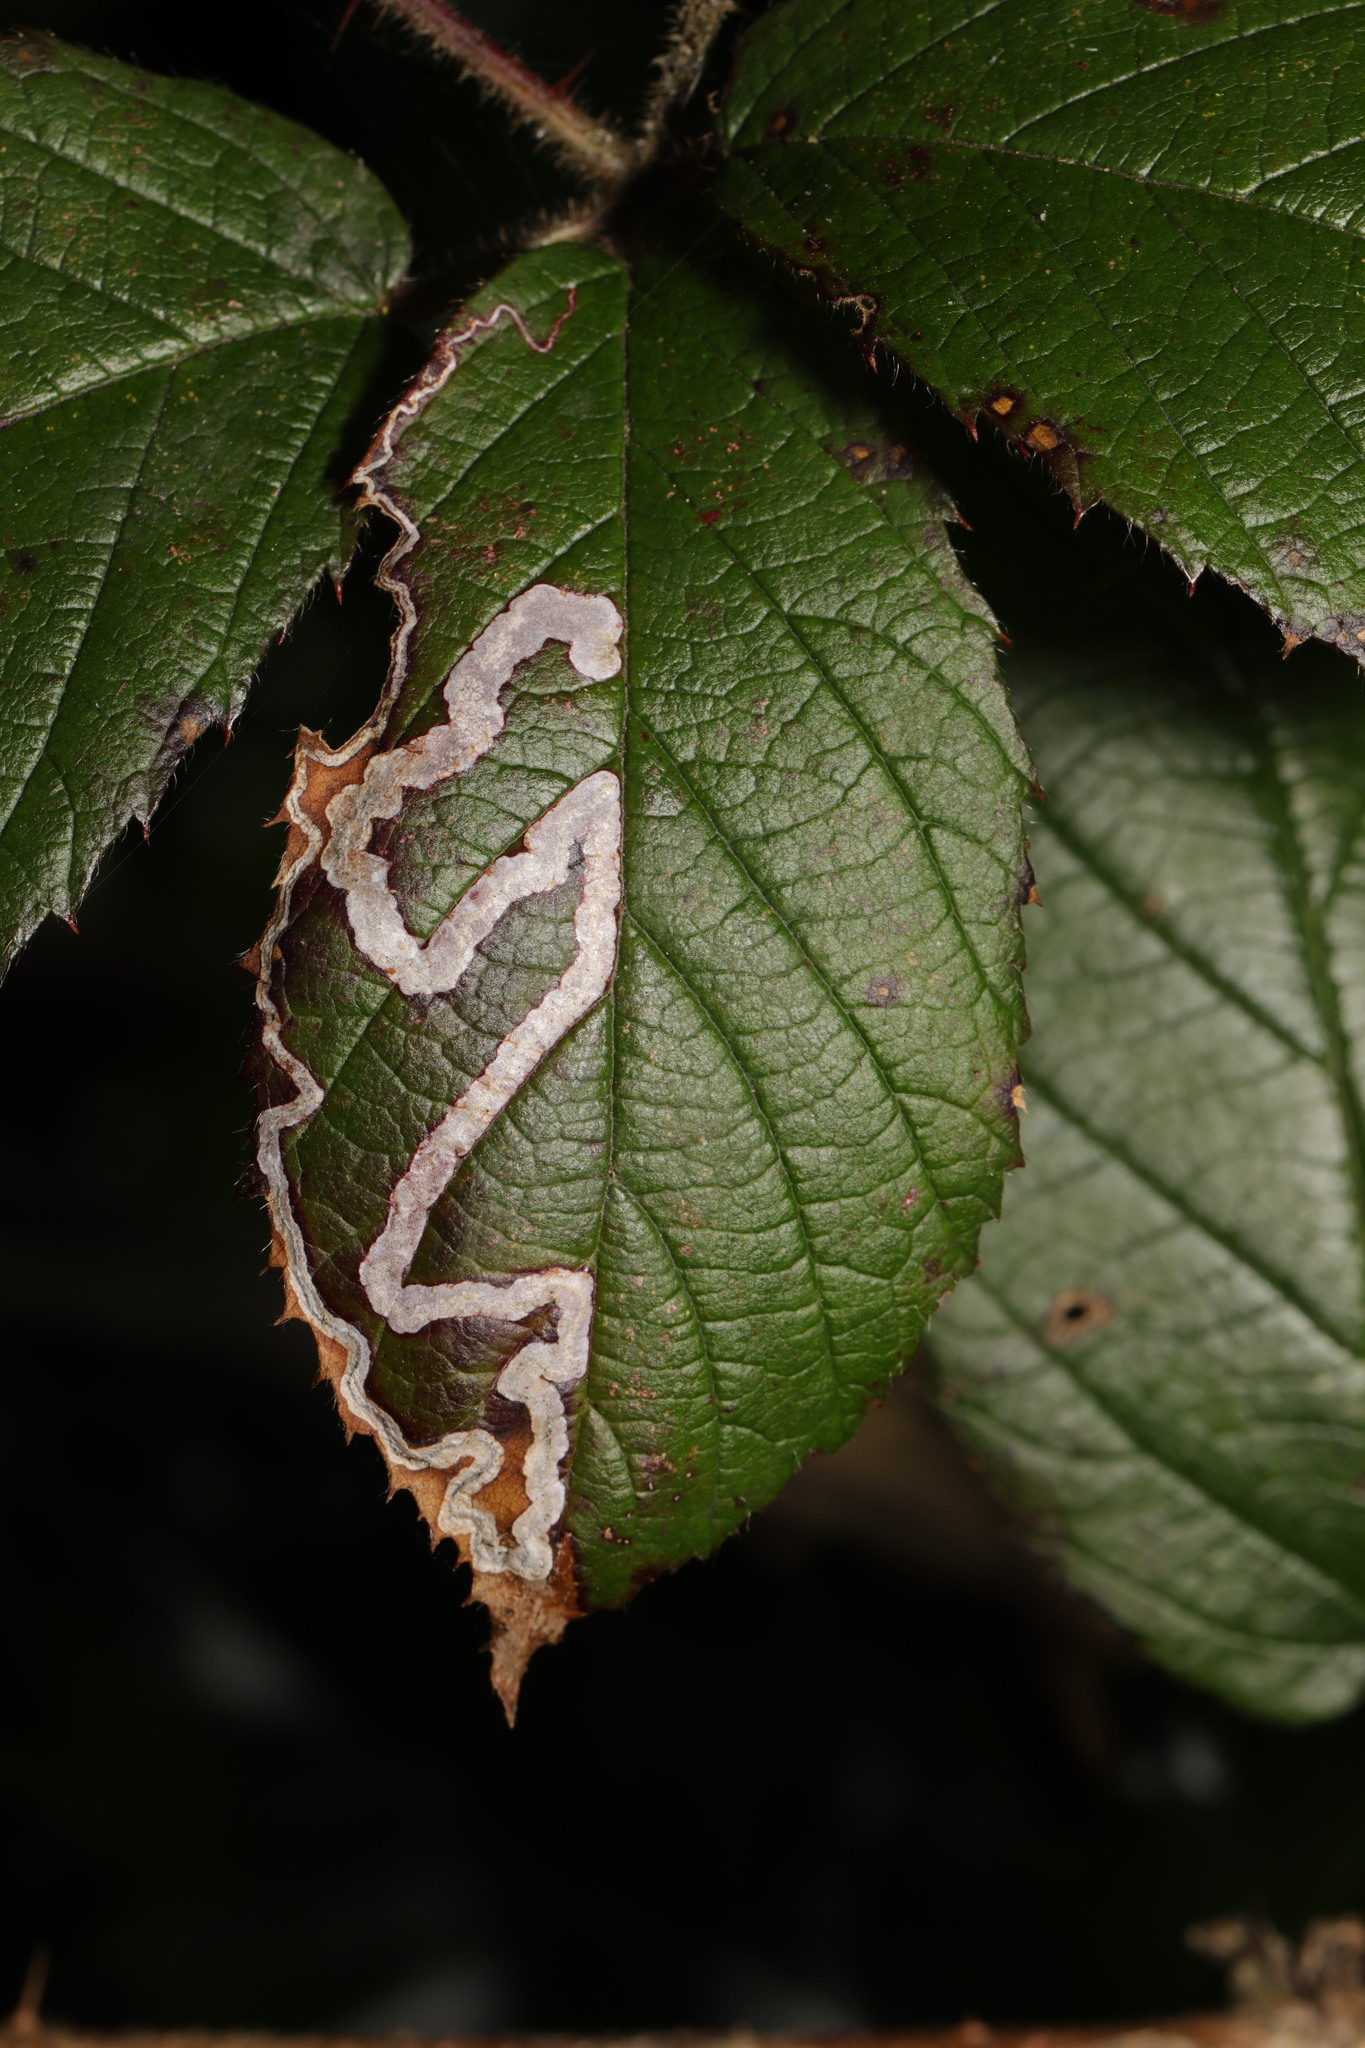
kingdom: Animalia
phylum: Arthropoda
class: Insecta
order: Lepidoptera
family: Nepticulidae
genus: Stigmella
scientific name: Stigmella aurella
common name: Golden pigmy
